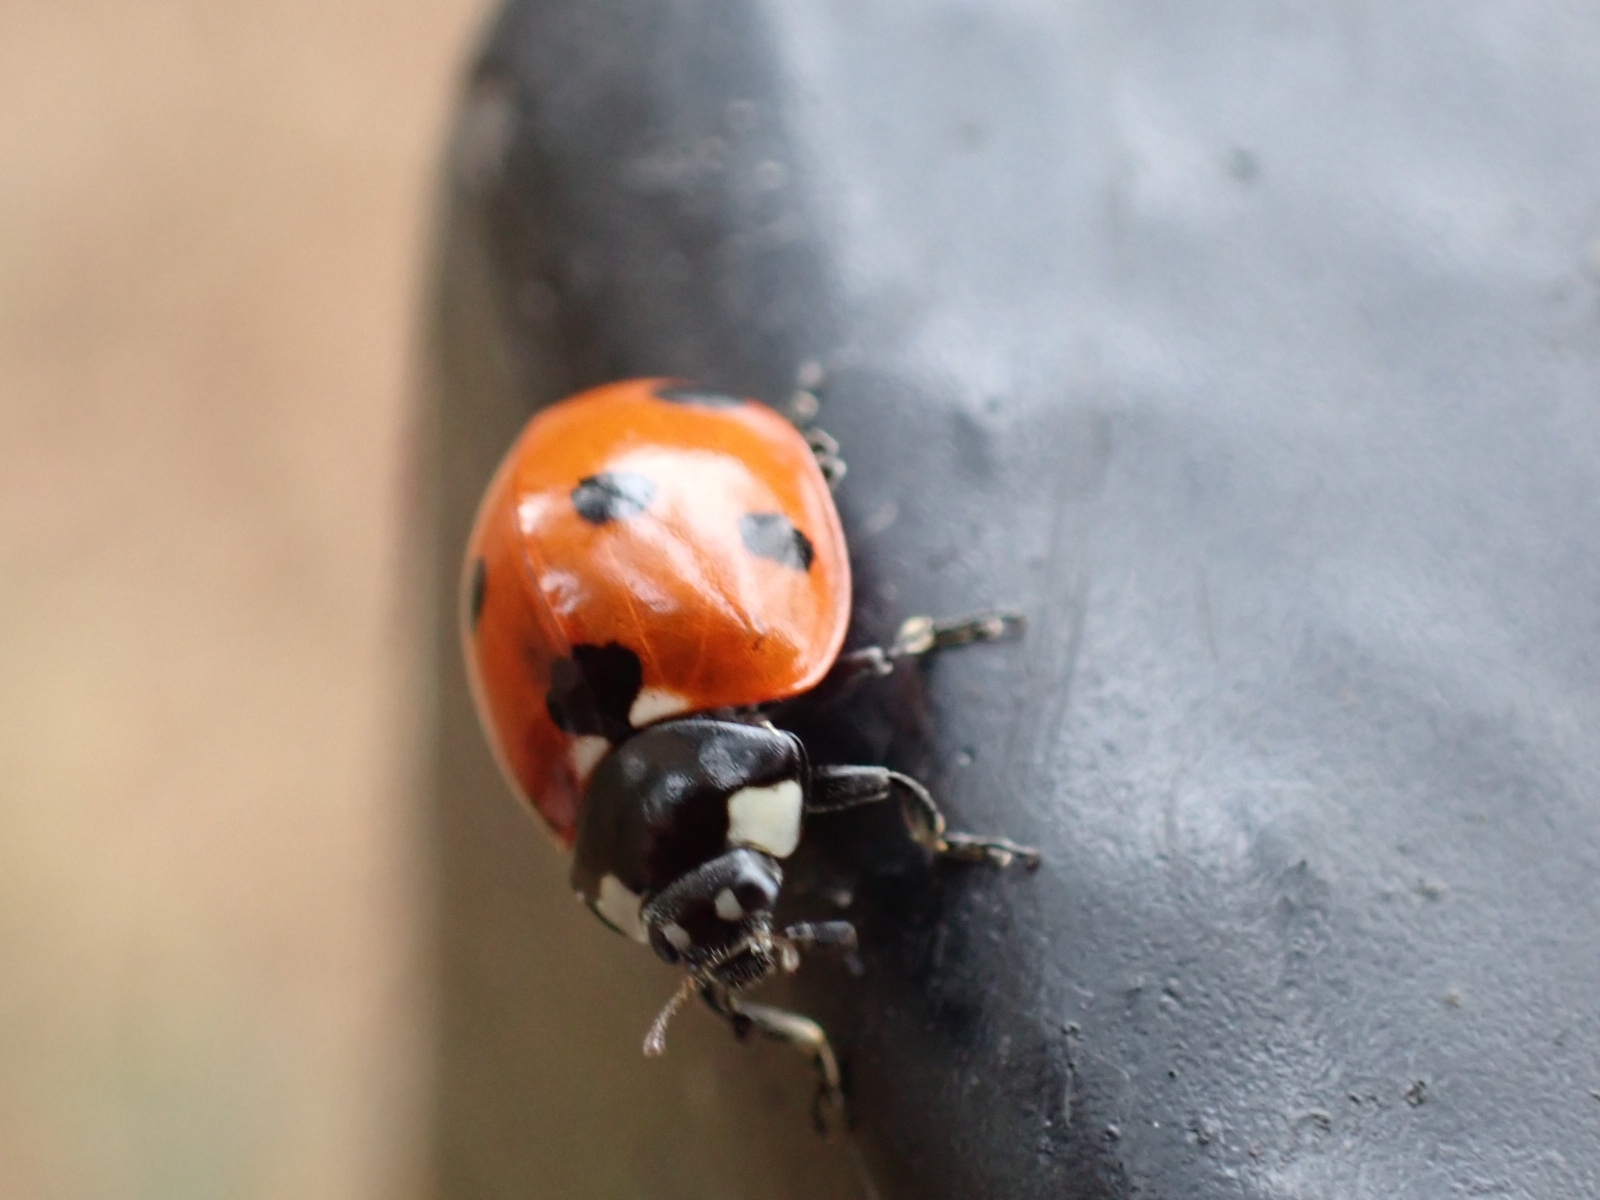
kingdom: Animalia
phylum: Arthropoda
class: Insecta
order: Coleoptera
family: Coccinellidae
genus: Coccinella
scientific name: Coccinella septempunctata
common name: Sevenspotted lady beetle
